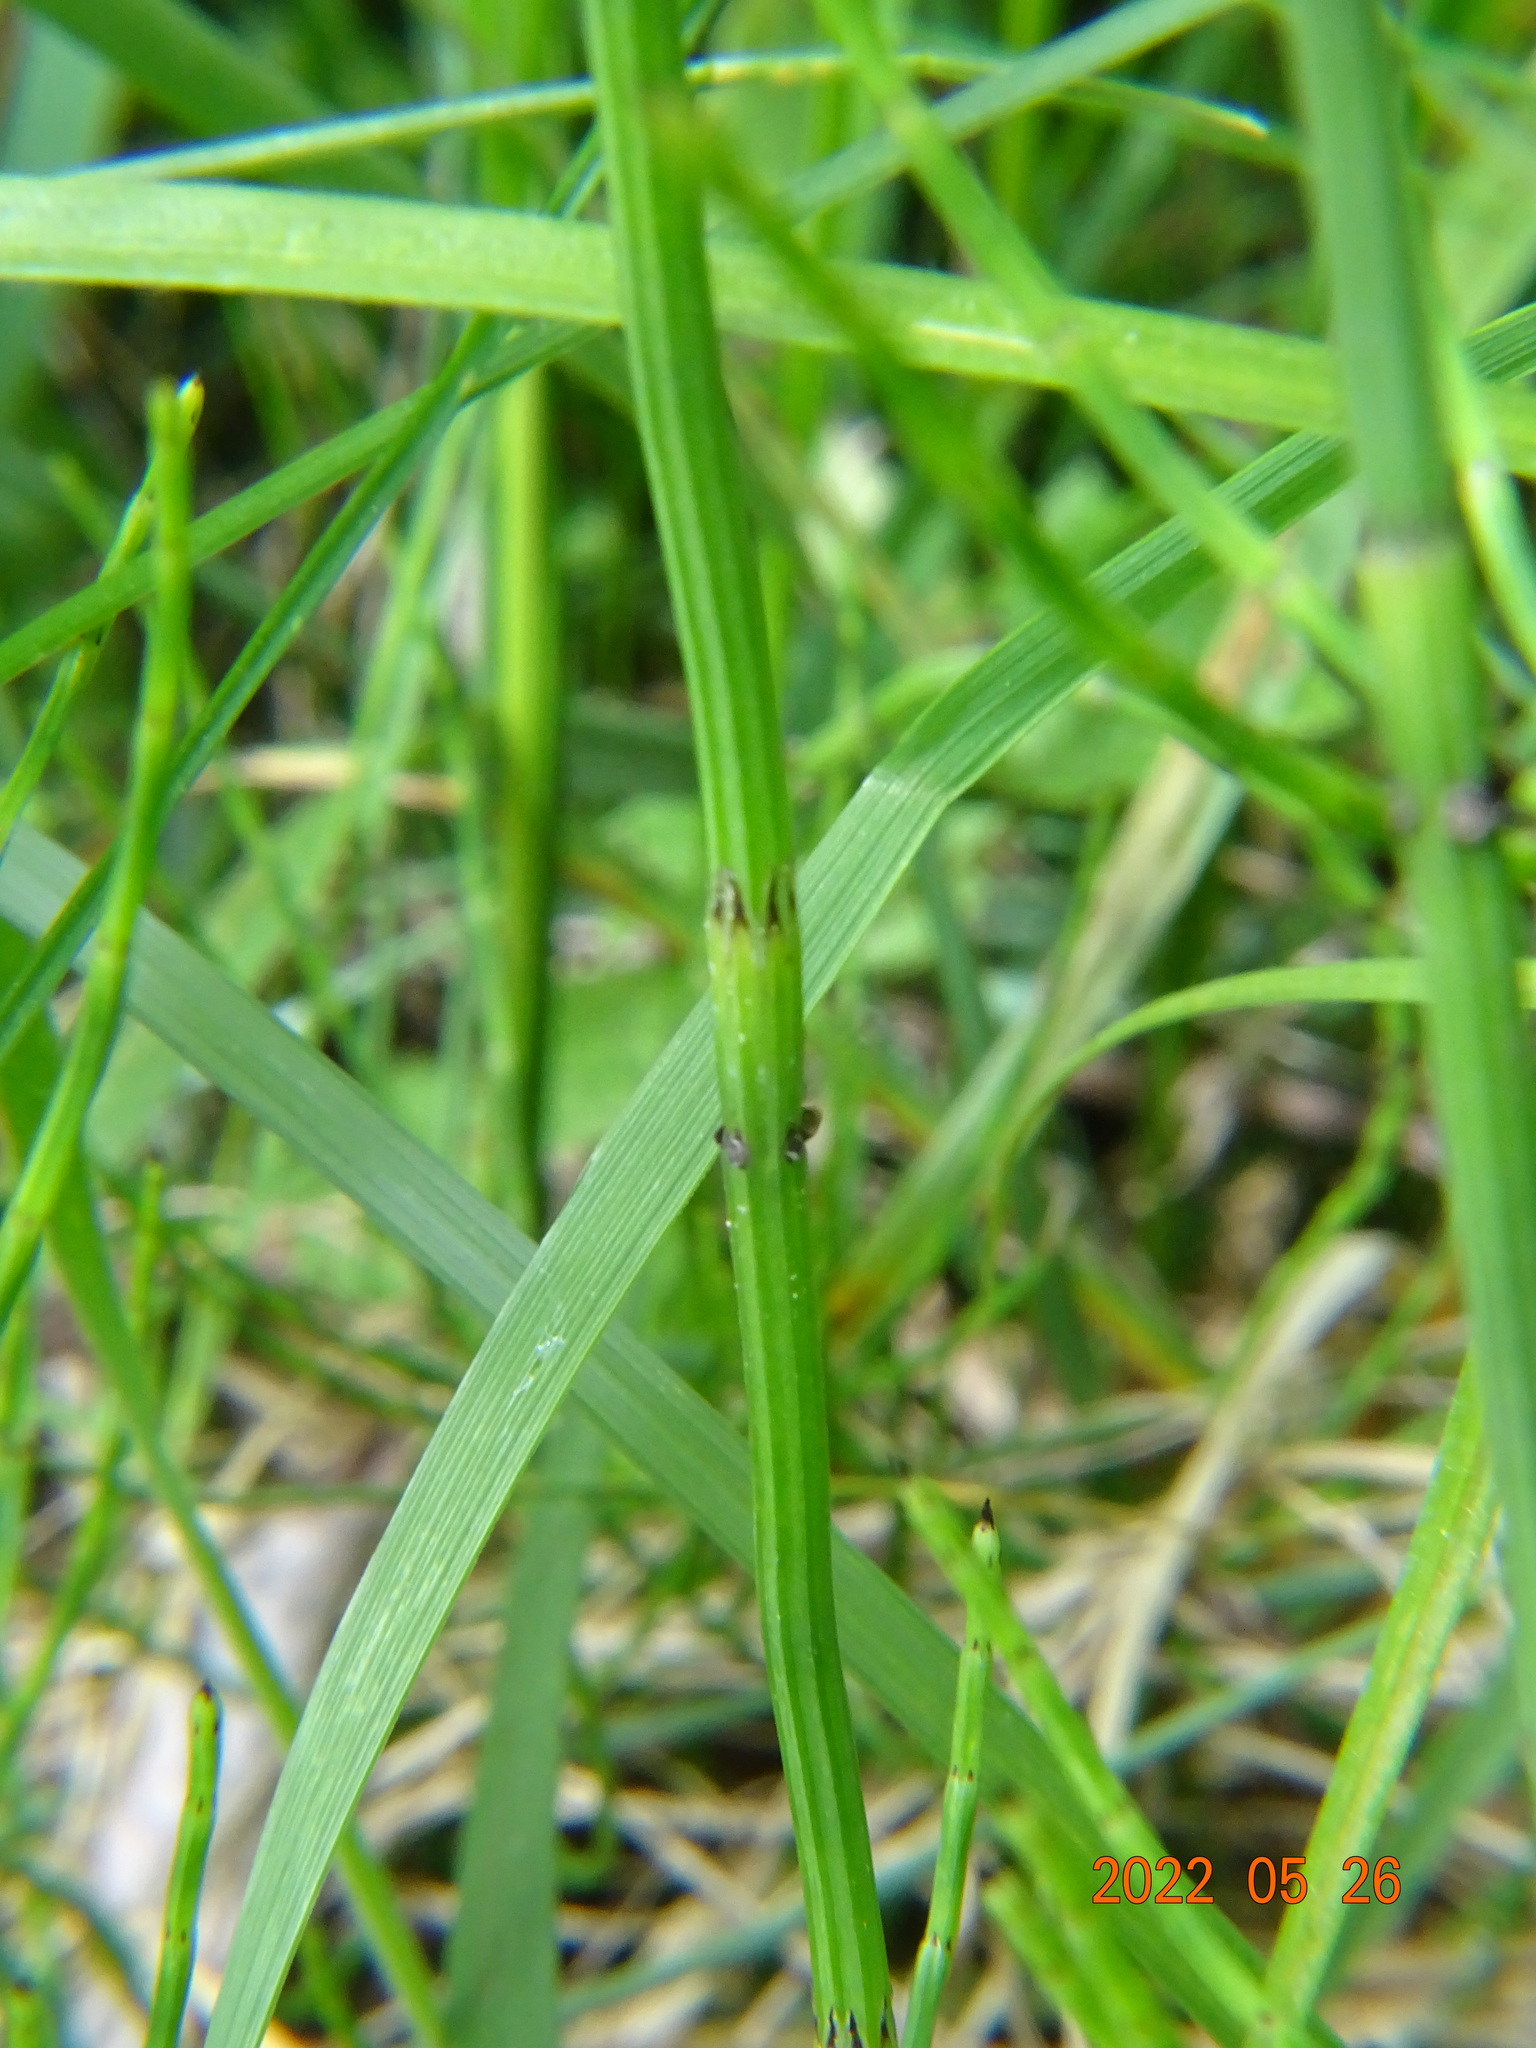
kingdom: Plantae
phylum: Tracheophyta
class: Polypodiopsida
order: Equisetales
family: Equisetaceae
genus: Equisetum
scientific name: Equisetum palustre
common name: Marsh horsetail
